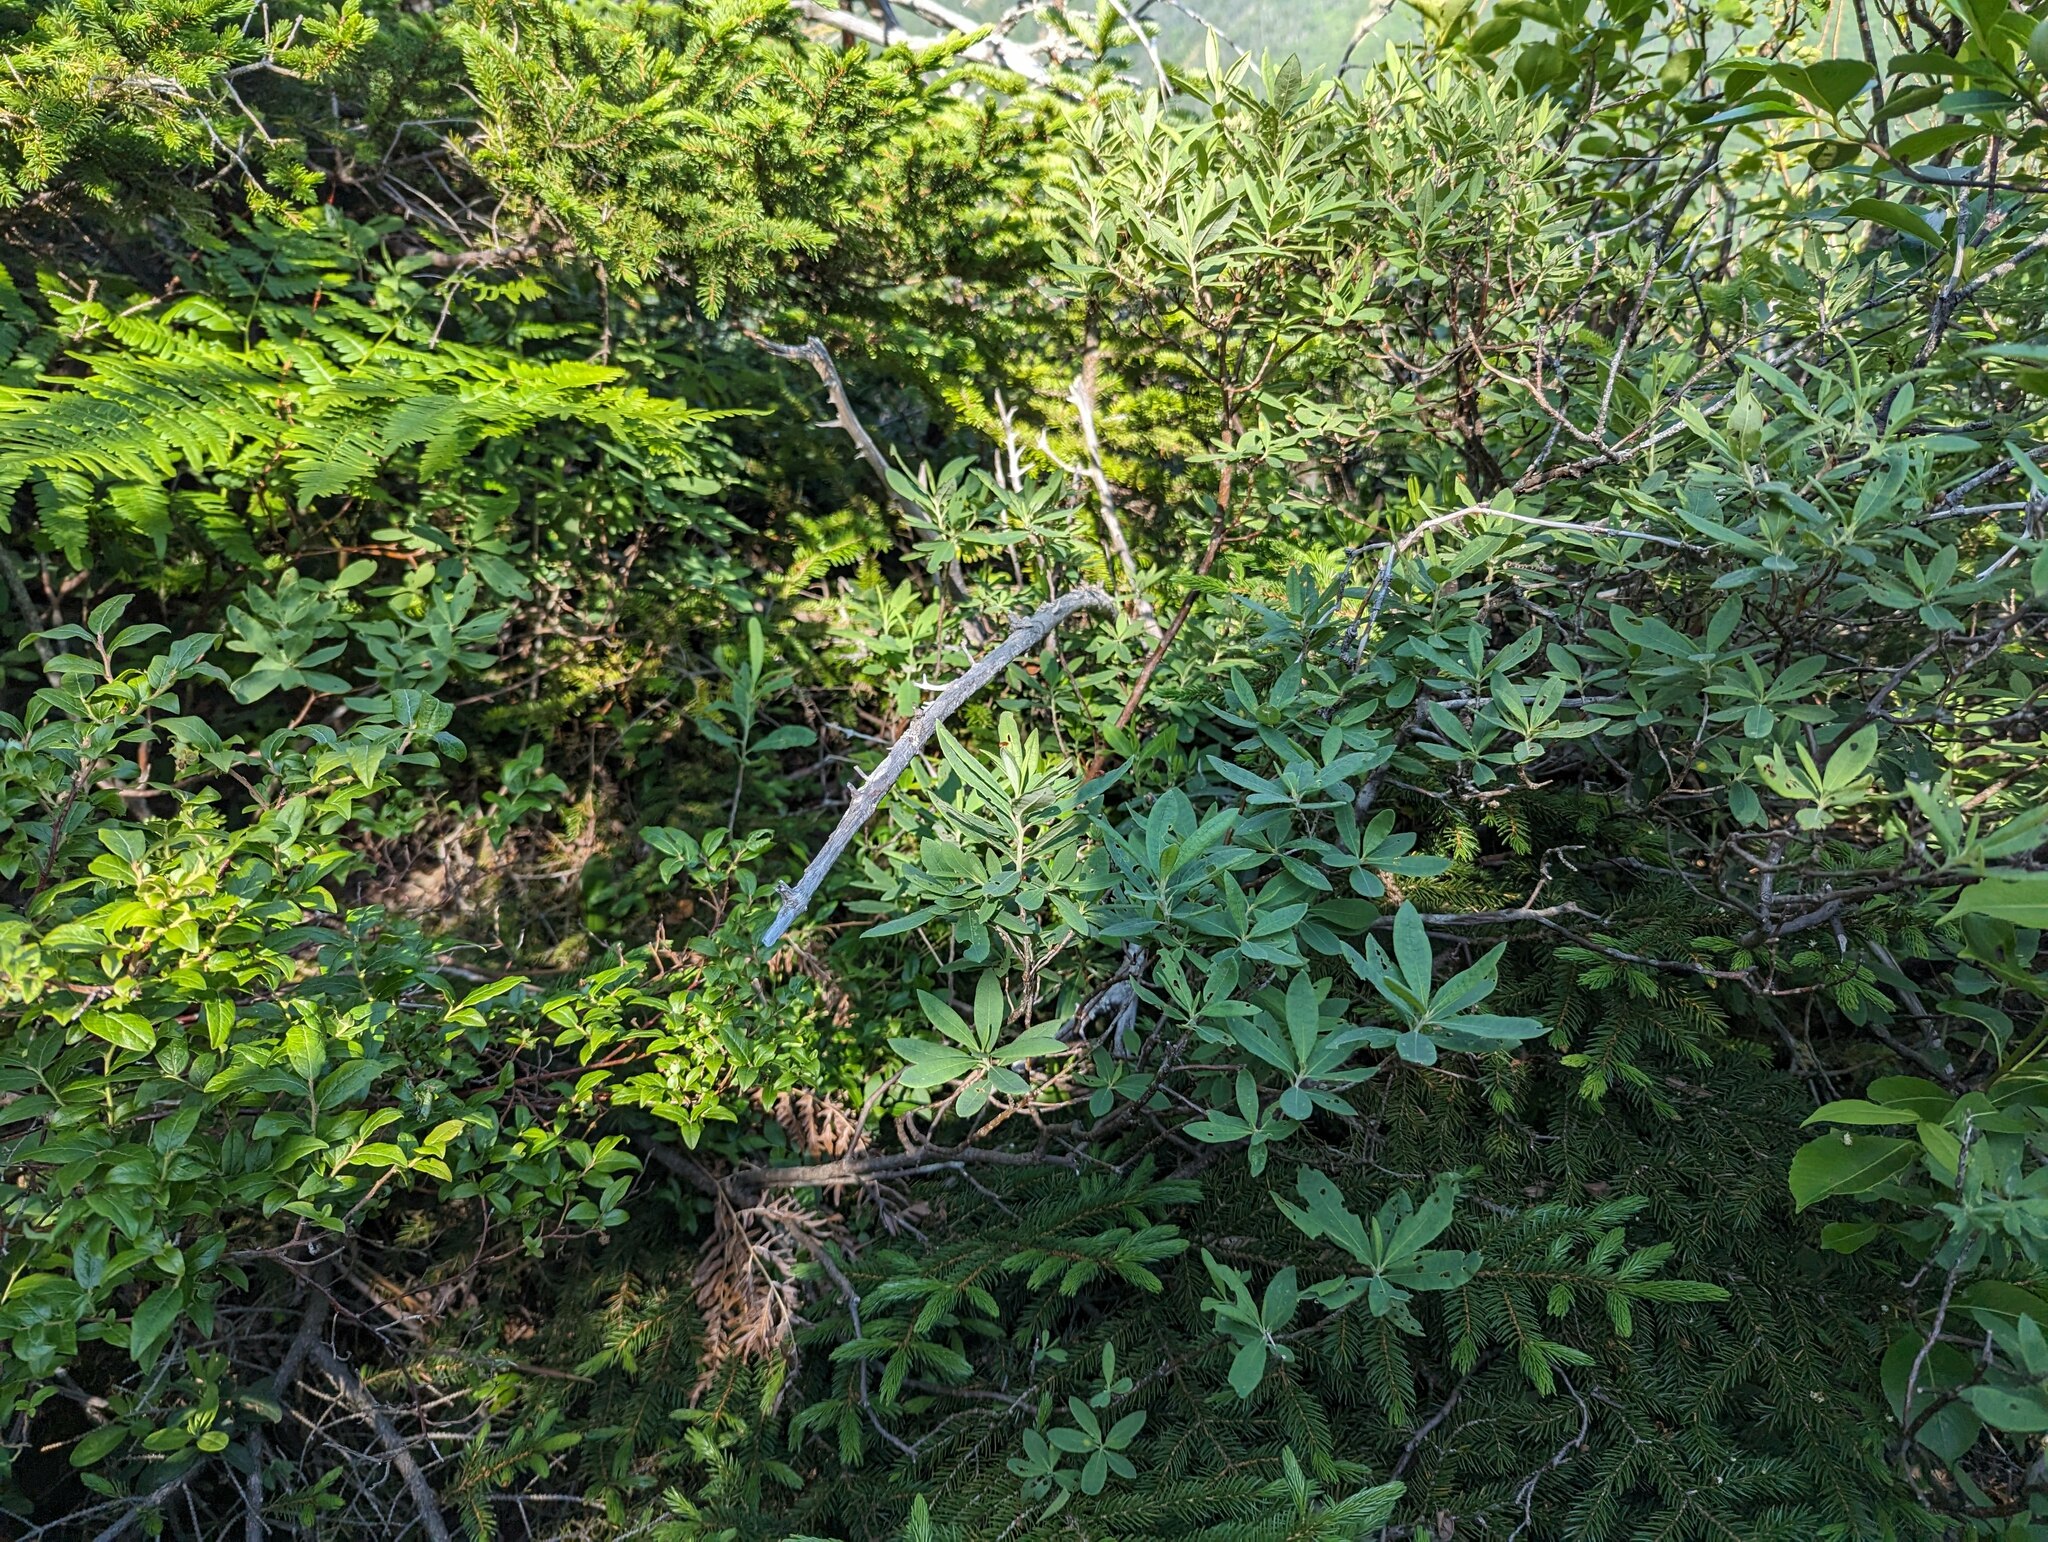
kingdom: Plantae
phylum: Tracheophyta
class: Magnoliopsida
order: Ericales
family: Ericaceae
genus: Rhododendron
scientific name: Rhododendron canadense
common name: Rhodora
